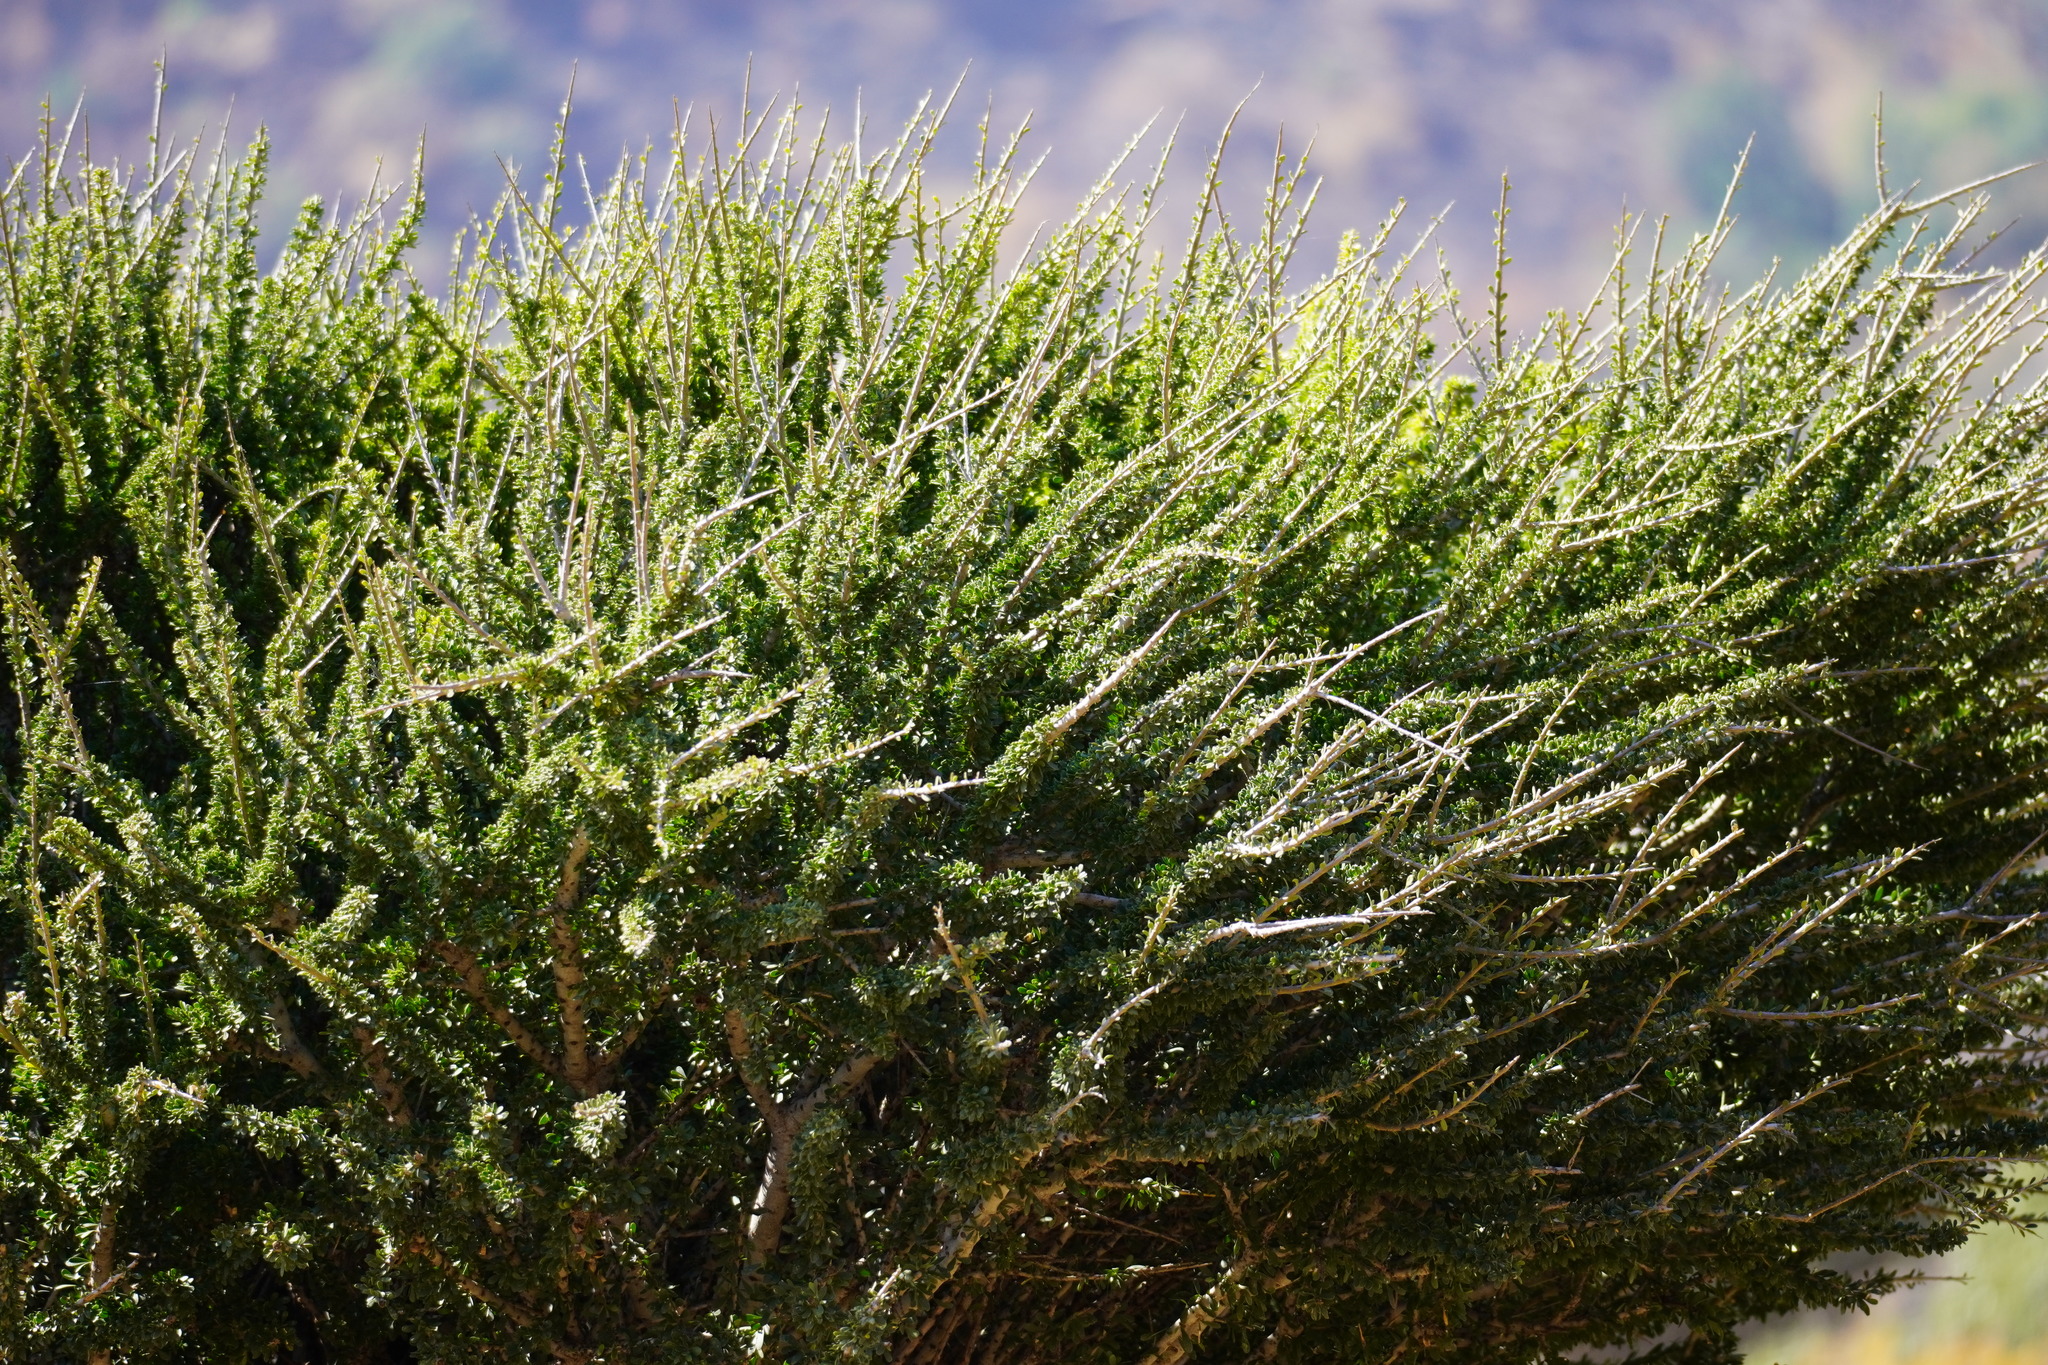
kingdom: Plantae
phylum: Tracheophyta
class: Magnoliopsida
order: Brassicales
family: Capparaceae
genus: Boscia
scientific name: Boscia foetida
